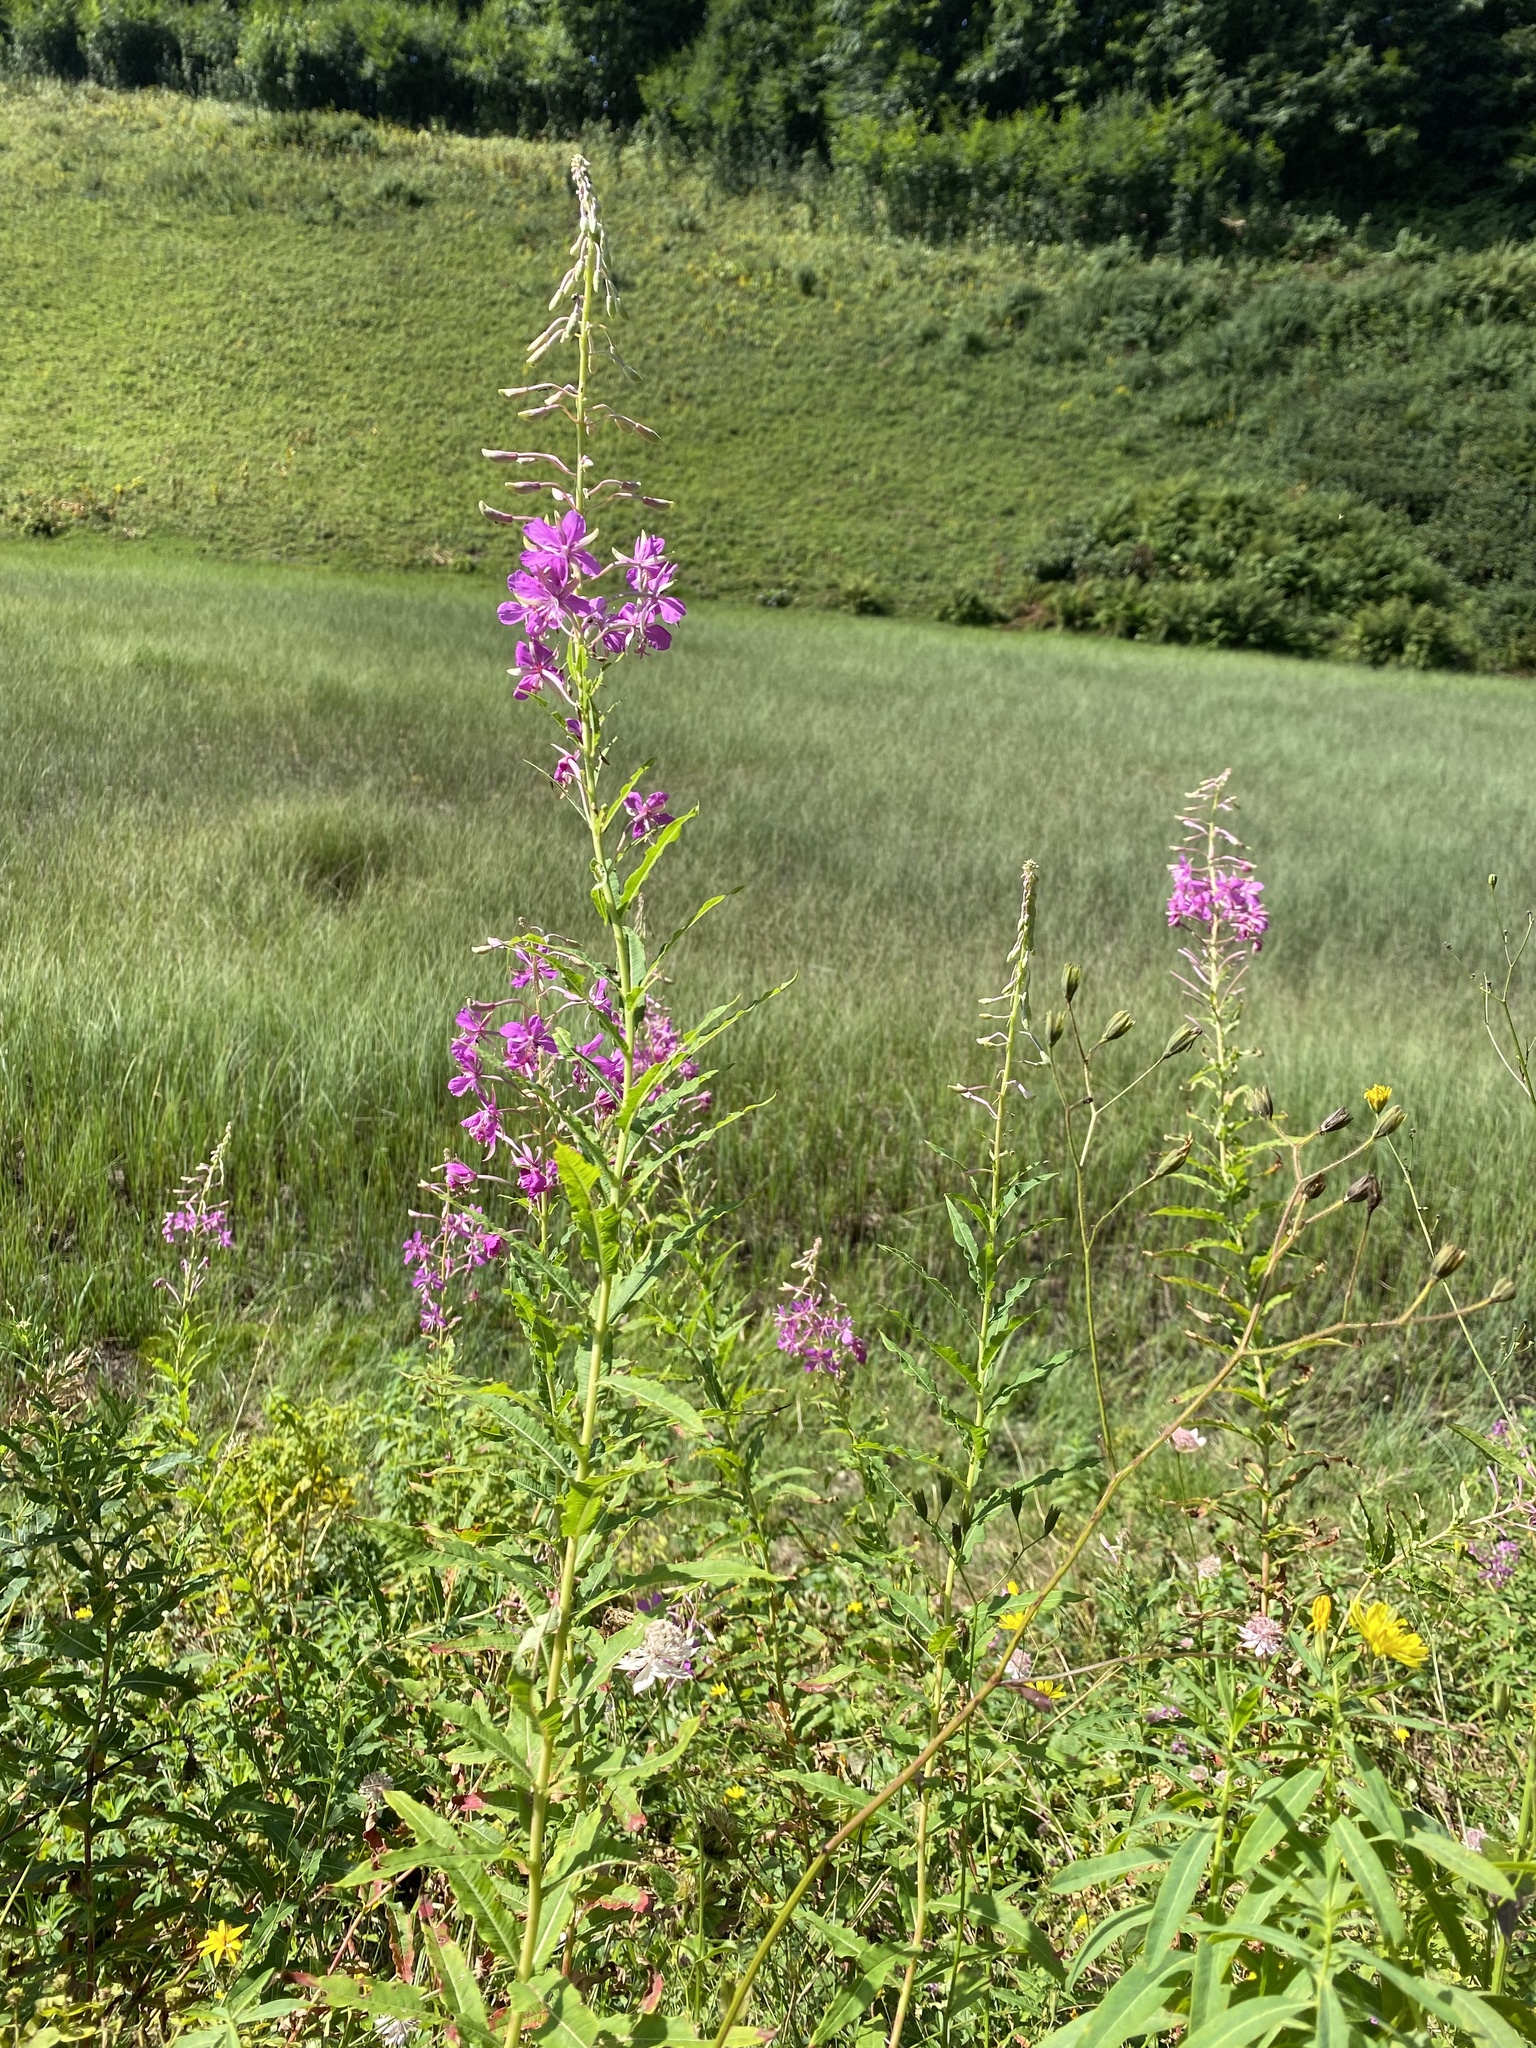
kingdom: Plantae
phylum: Tracheophyta
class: Magnoliopsida
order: Myrtales
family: Onagraceae
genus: Chamaenerion
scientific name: Chamaenerion angustifolium
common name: Fireweed
